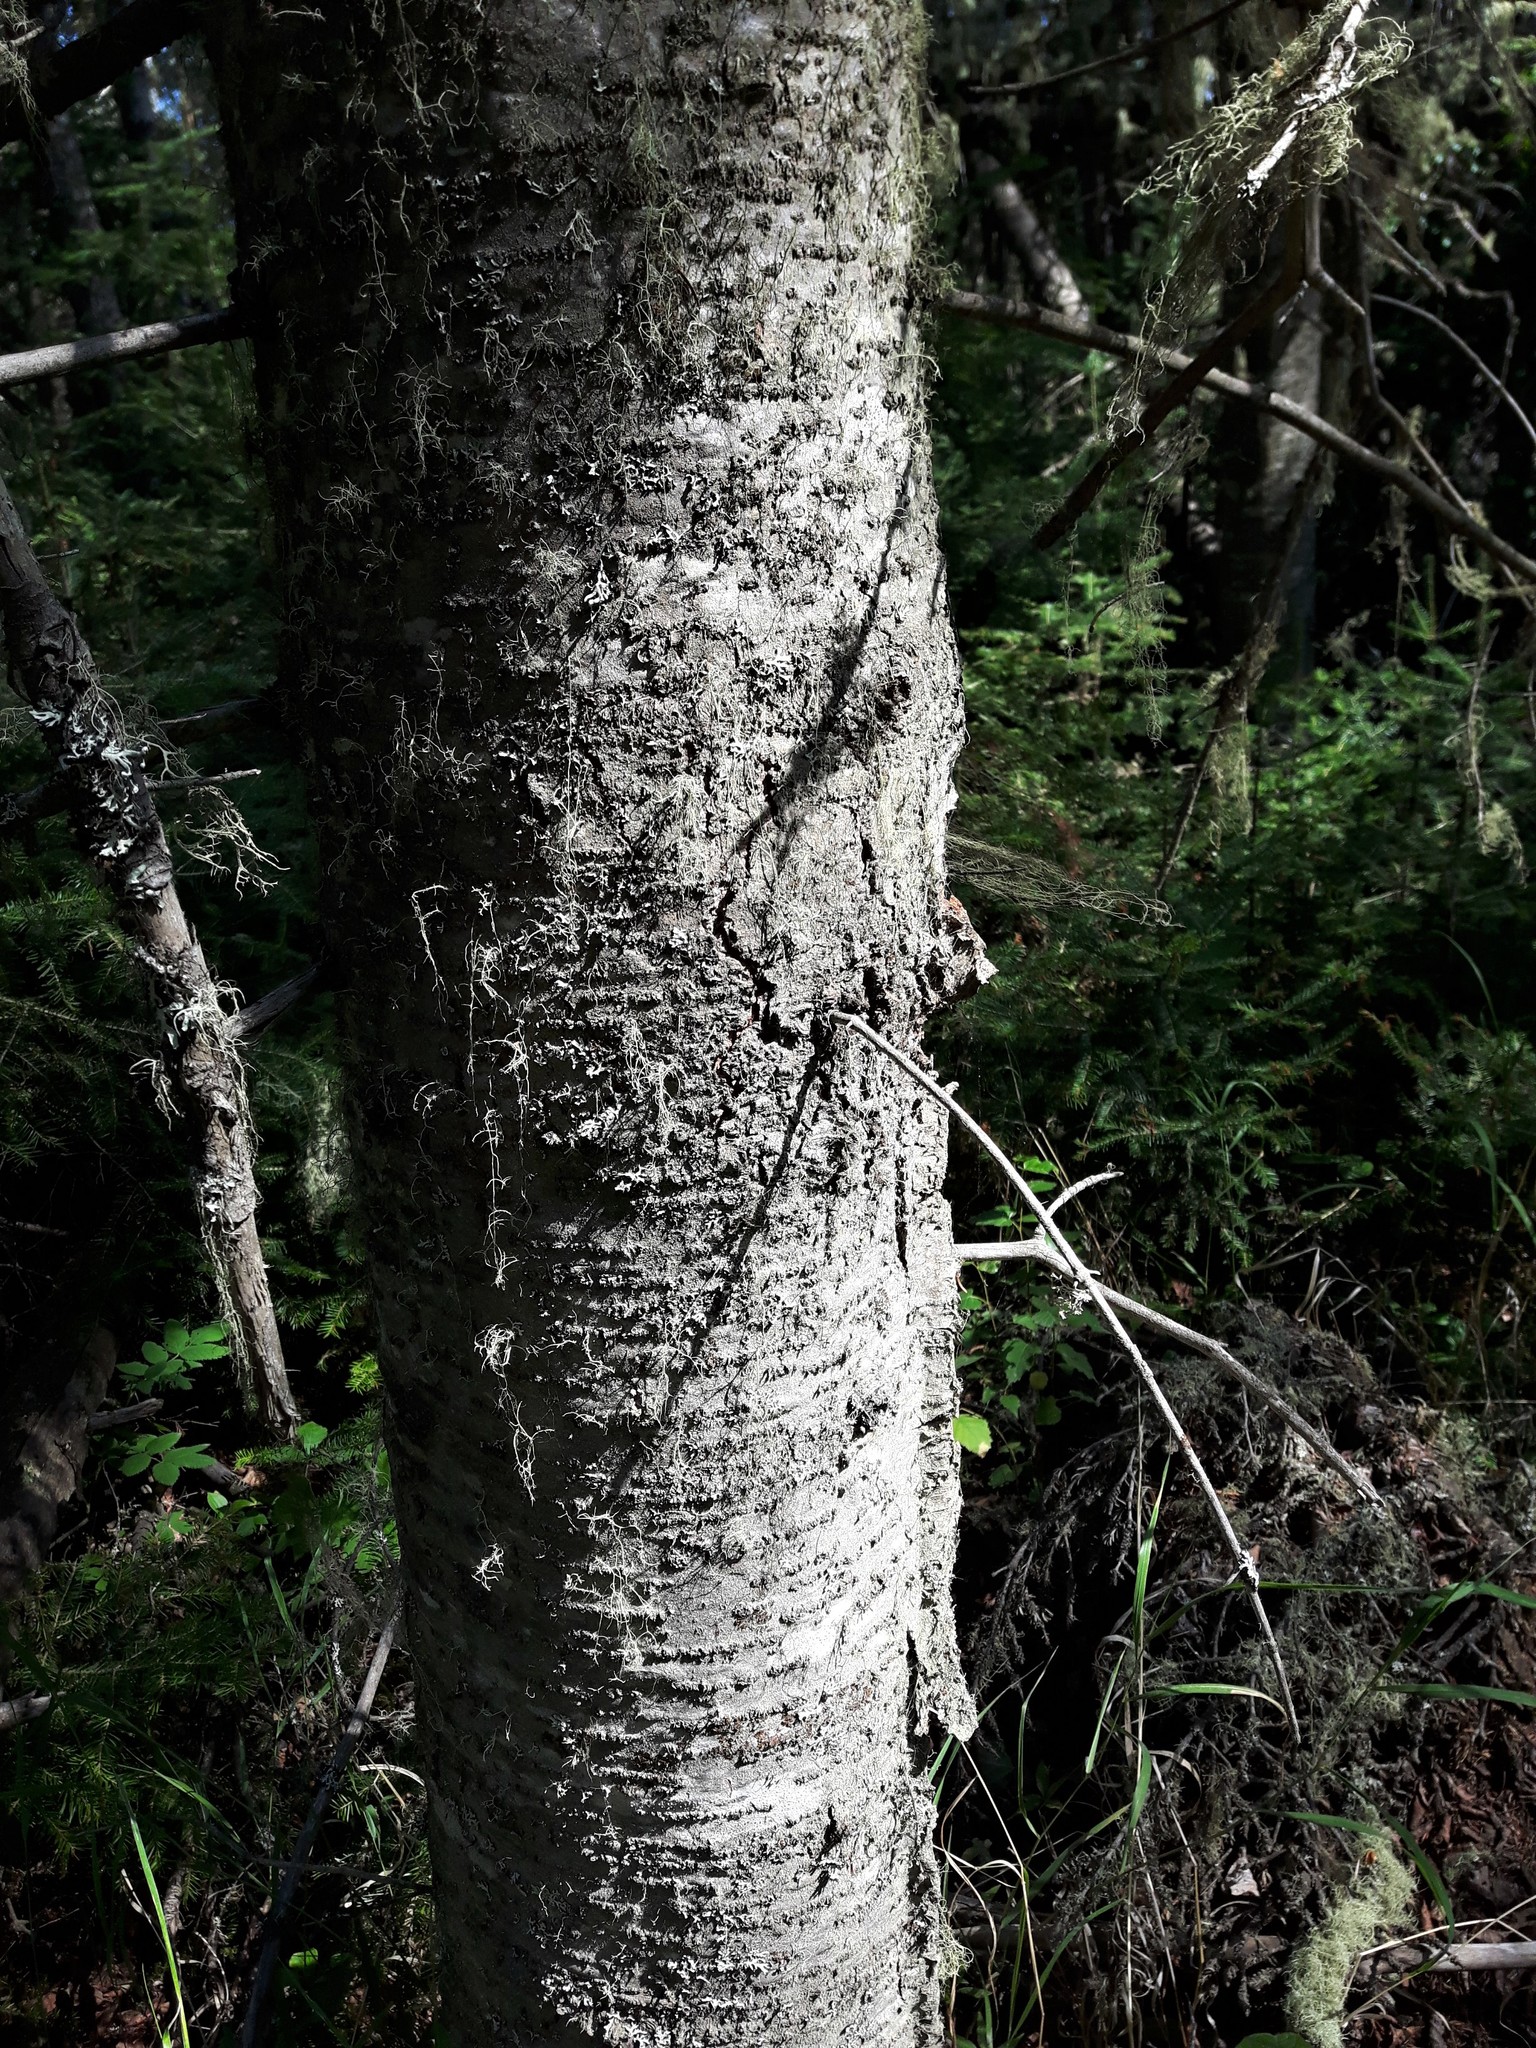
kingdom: Plantae
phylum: Tracheophyta
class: Pinopsida
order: Pinales
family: Pinaceae
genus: Abies
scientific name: Abies balsamea
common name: Balsam fir
